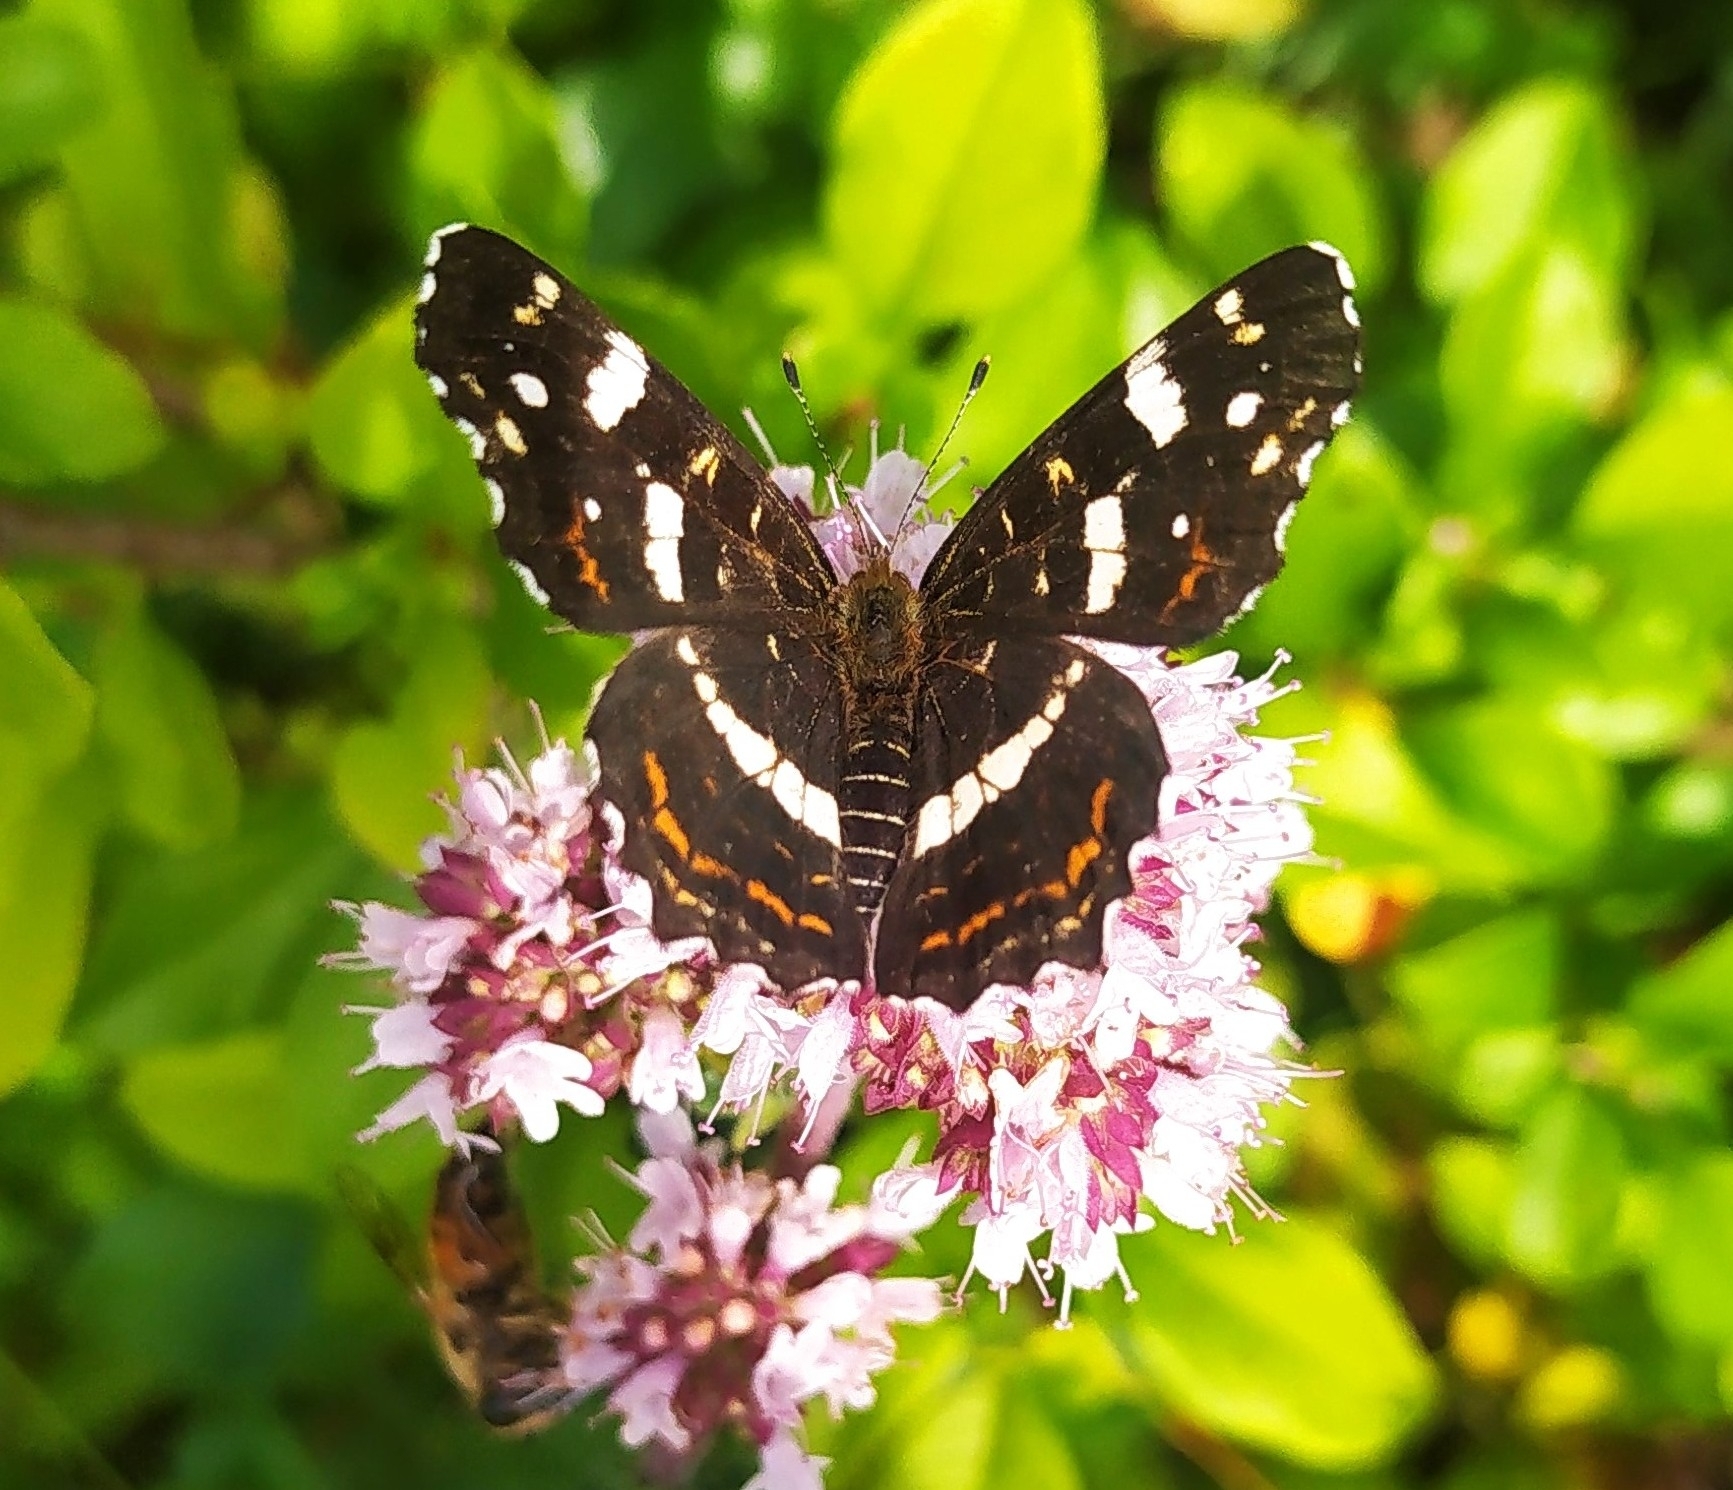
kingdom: Animalia
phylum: Arthropoda
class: Insecta
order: Lepidoptera
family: Nymphalidae
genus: Araschnia
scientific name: Araschnia levana
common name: Map butterfly
